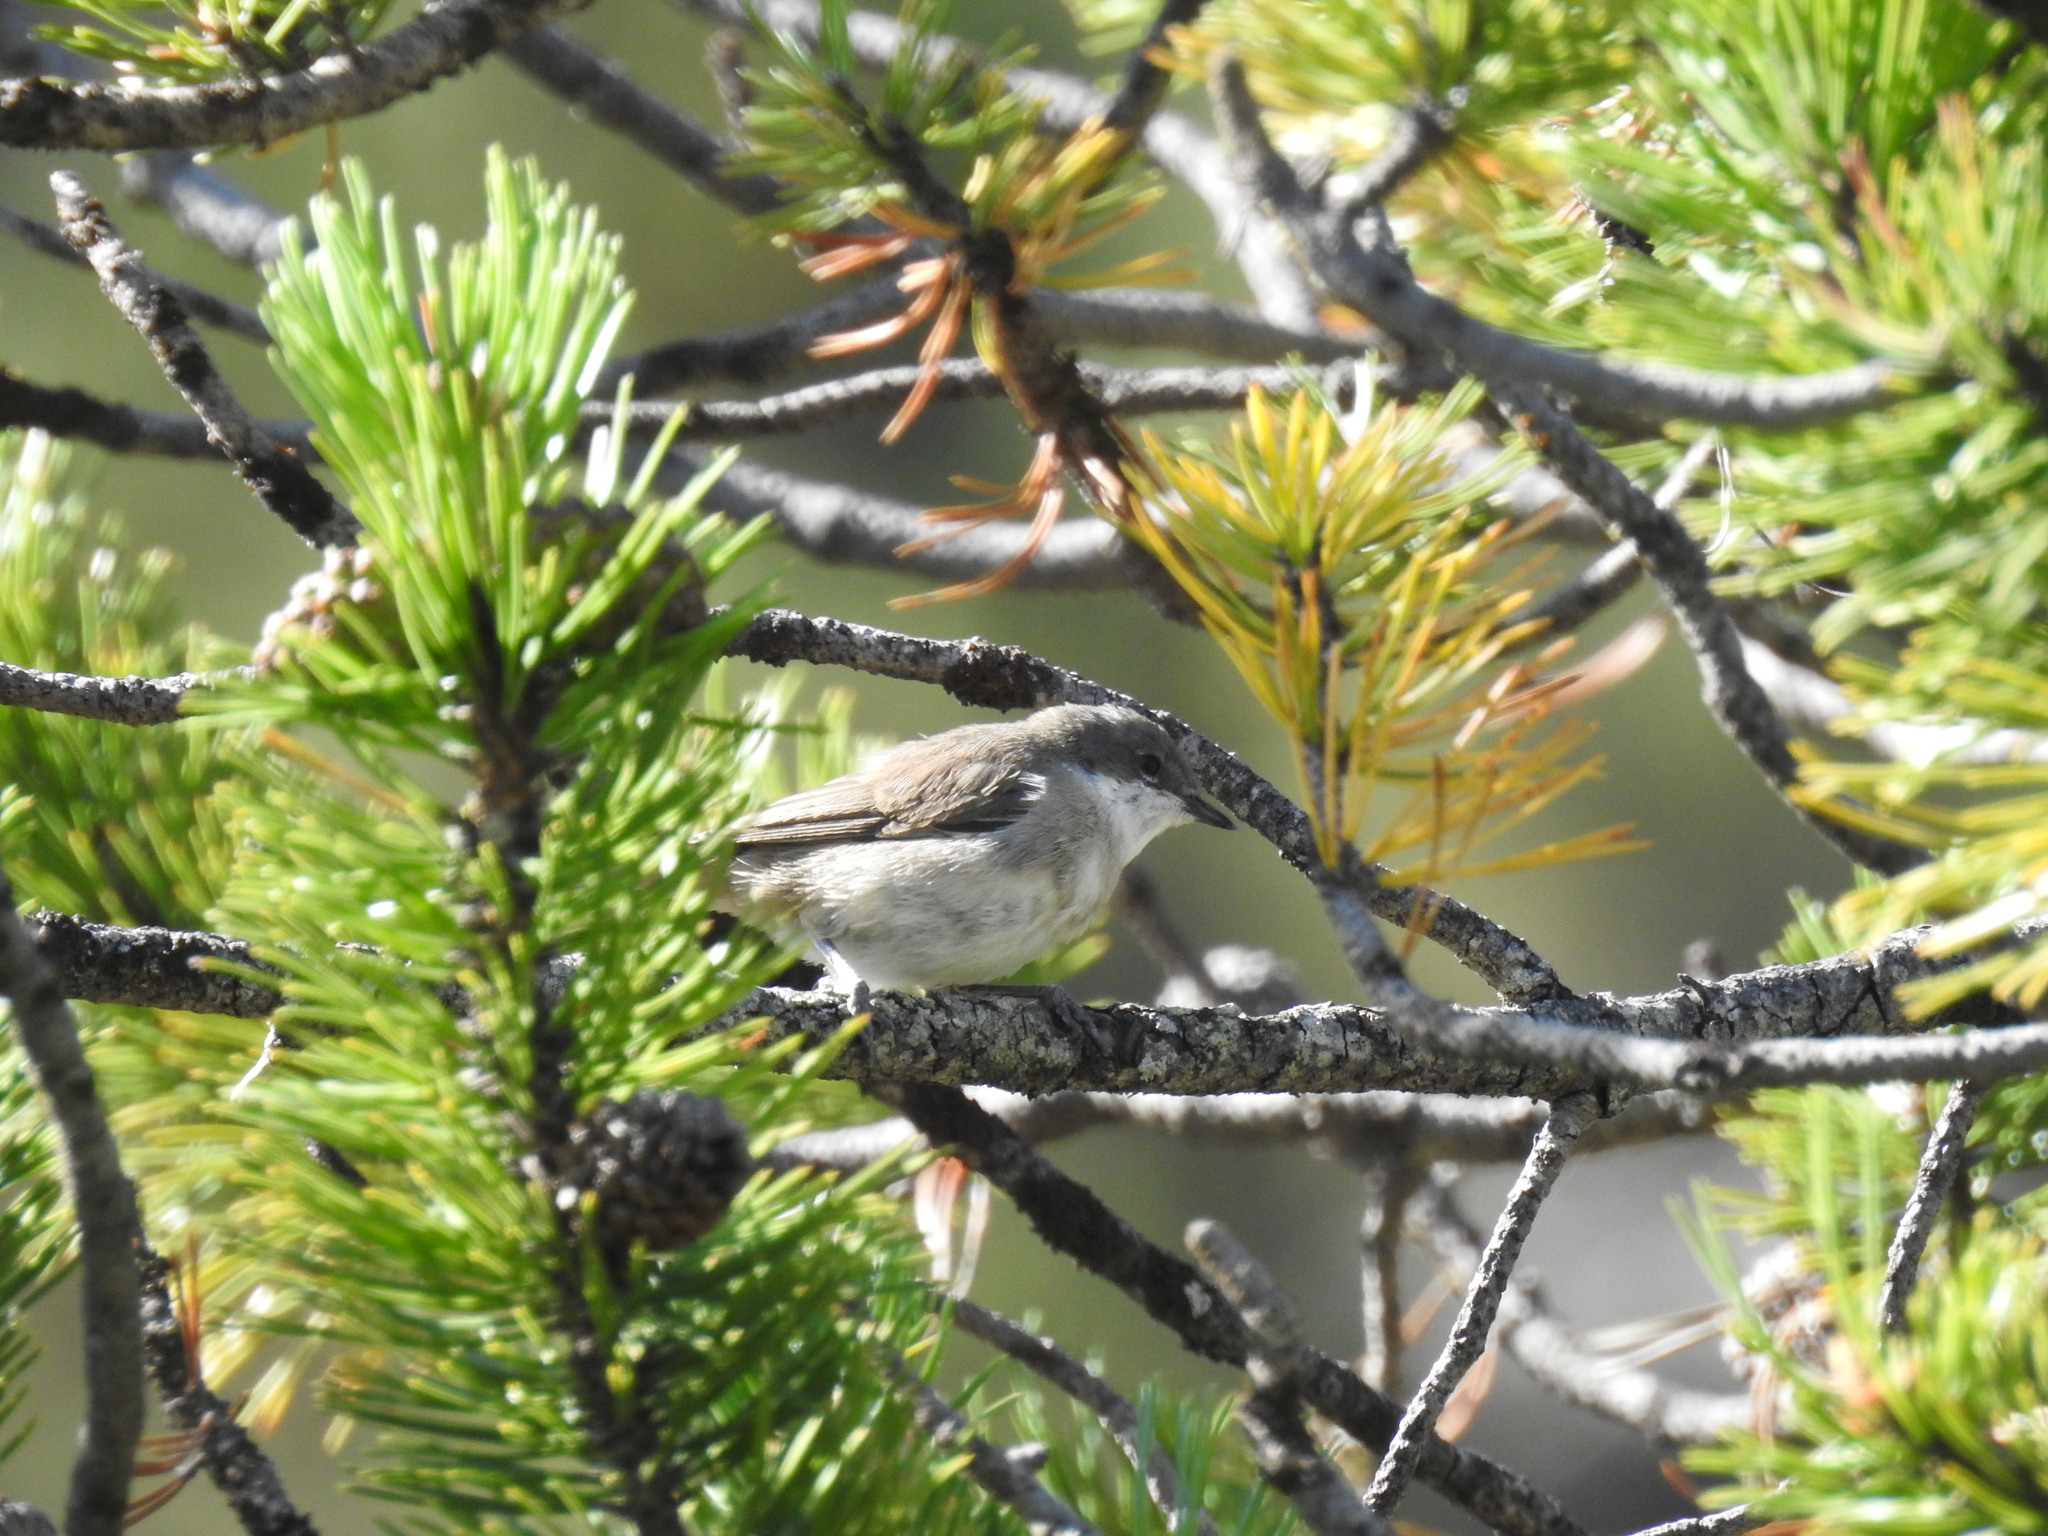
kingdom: Animalia
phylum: Chordata
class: Aves
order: Passeriformes
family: Sylviidae
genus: Sylvia
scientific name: Sylvia curruca
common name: Lesser whitethroat
